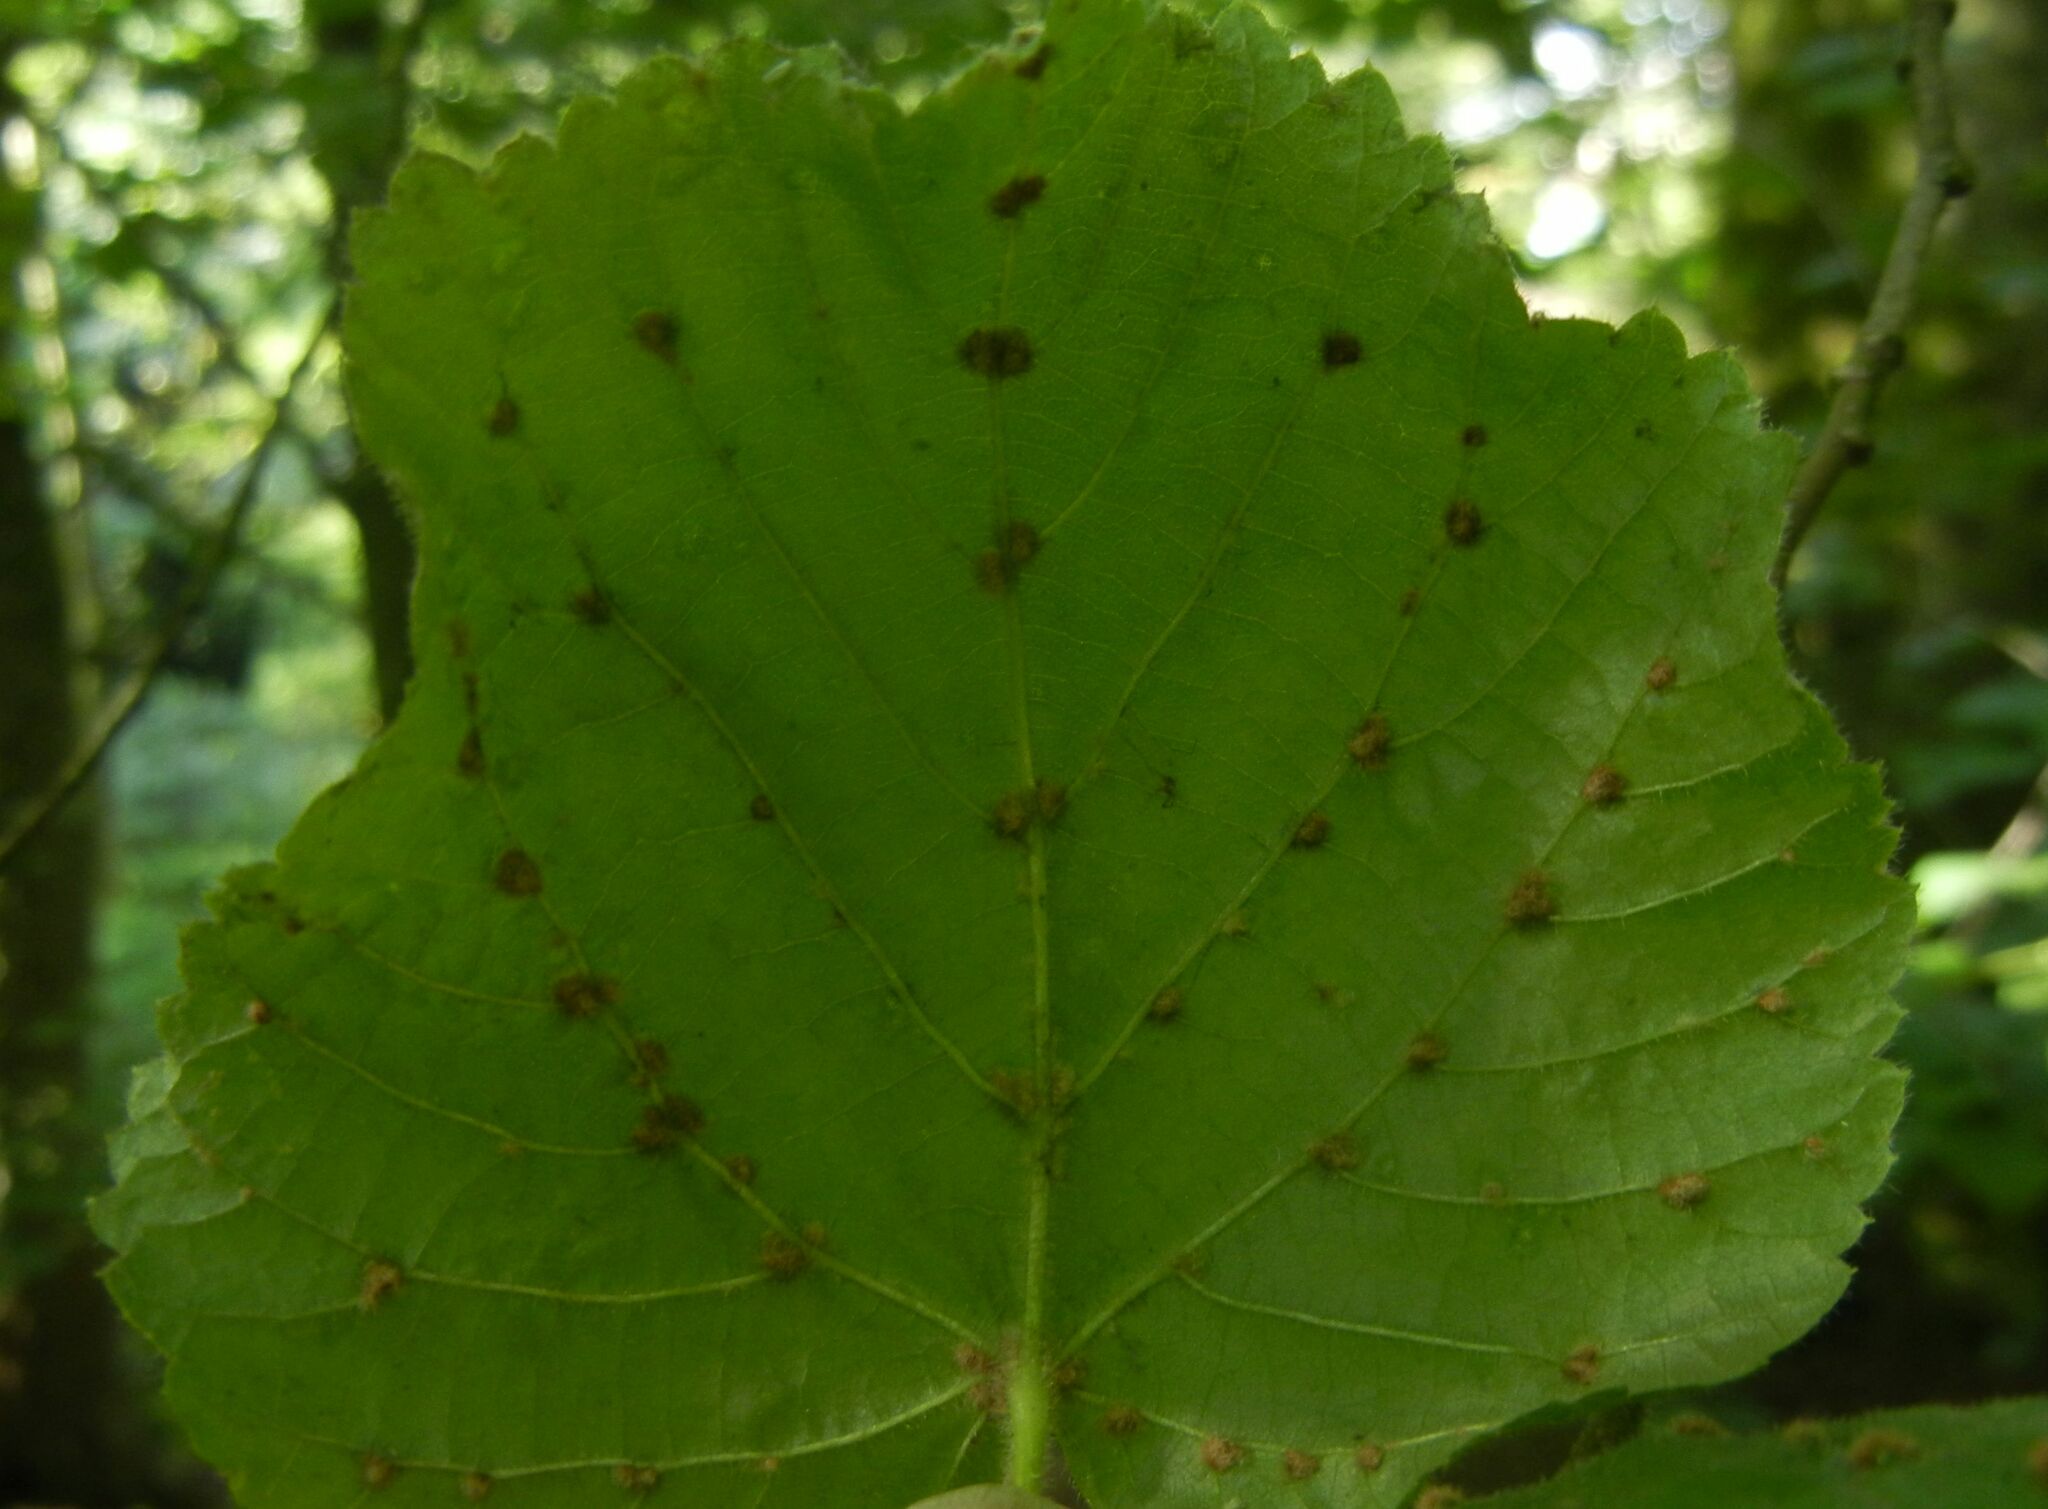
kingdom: Animalia
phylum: Arthropoda
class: Arachnida
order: Trombidiformes
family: Eriophyidae
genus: Eriophyes
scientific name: Eriophyes exilis
